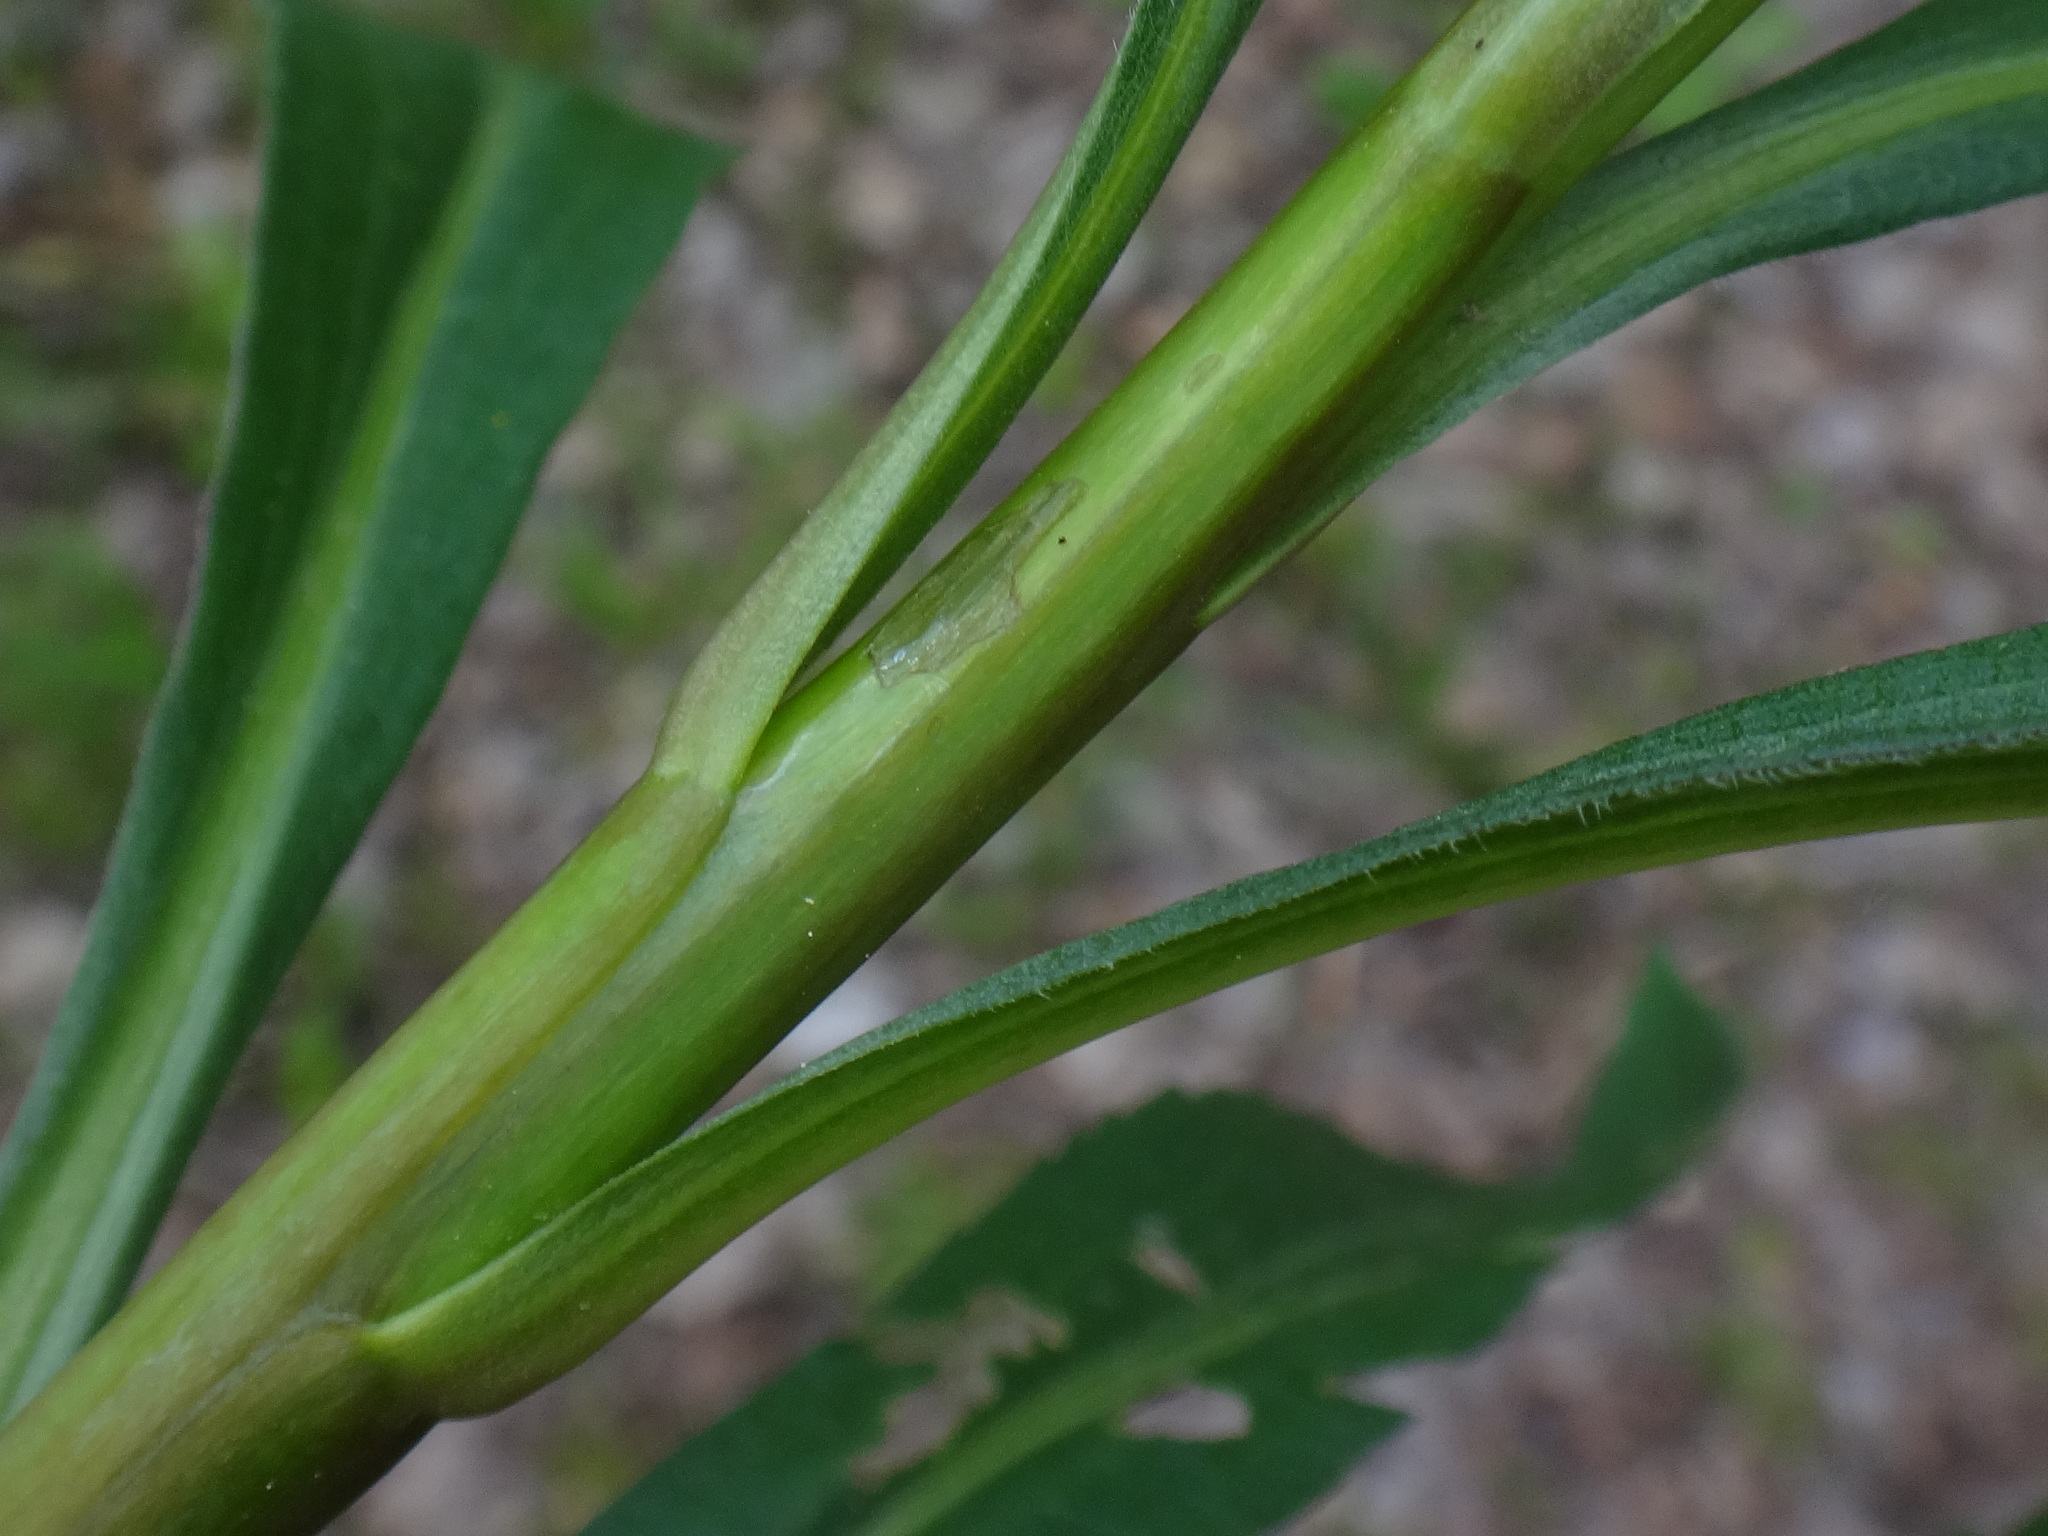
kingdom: Plantae
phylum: Tracheophyta
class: Magnoliopsida
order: Asterales
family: Asteraceae
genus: Solidago
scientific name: Solidago gigantea
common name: Giant goldenrod
